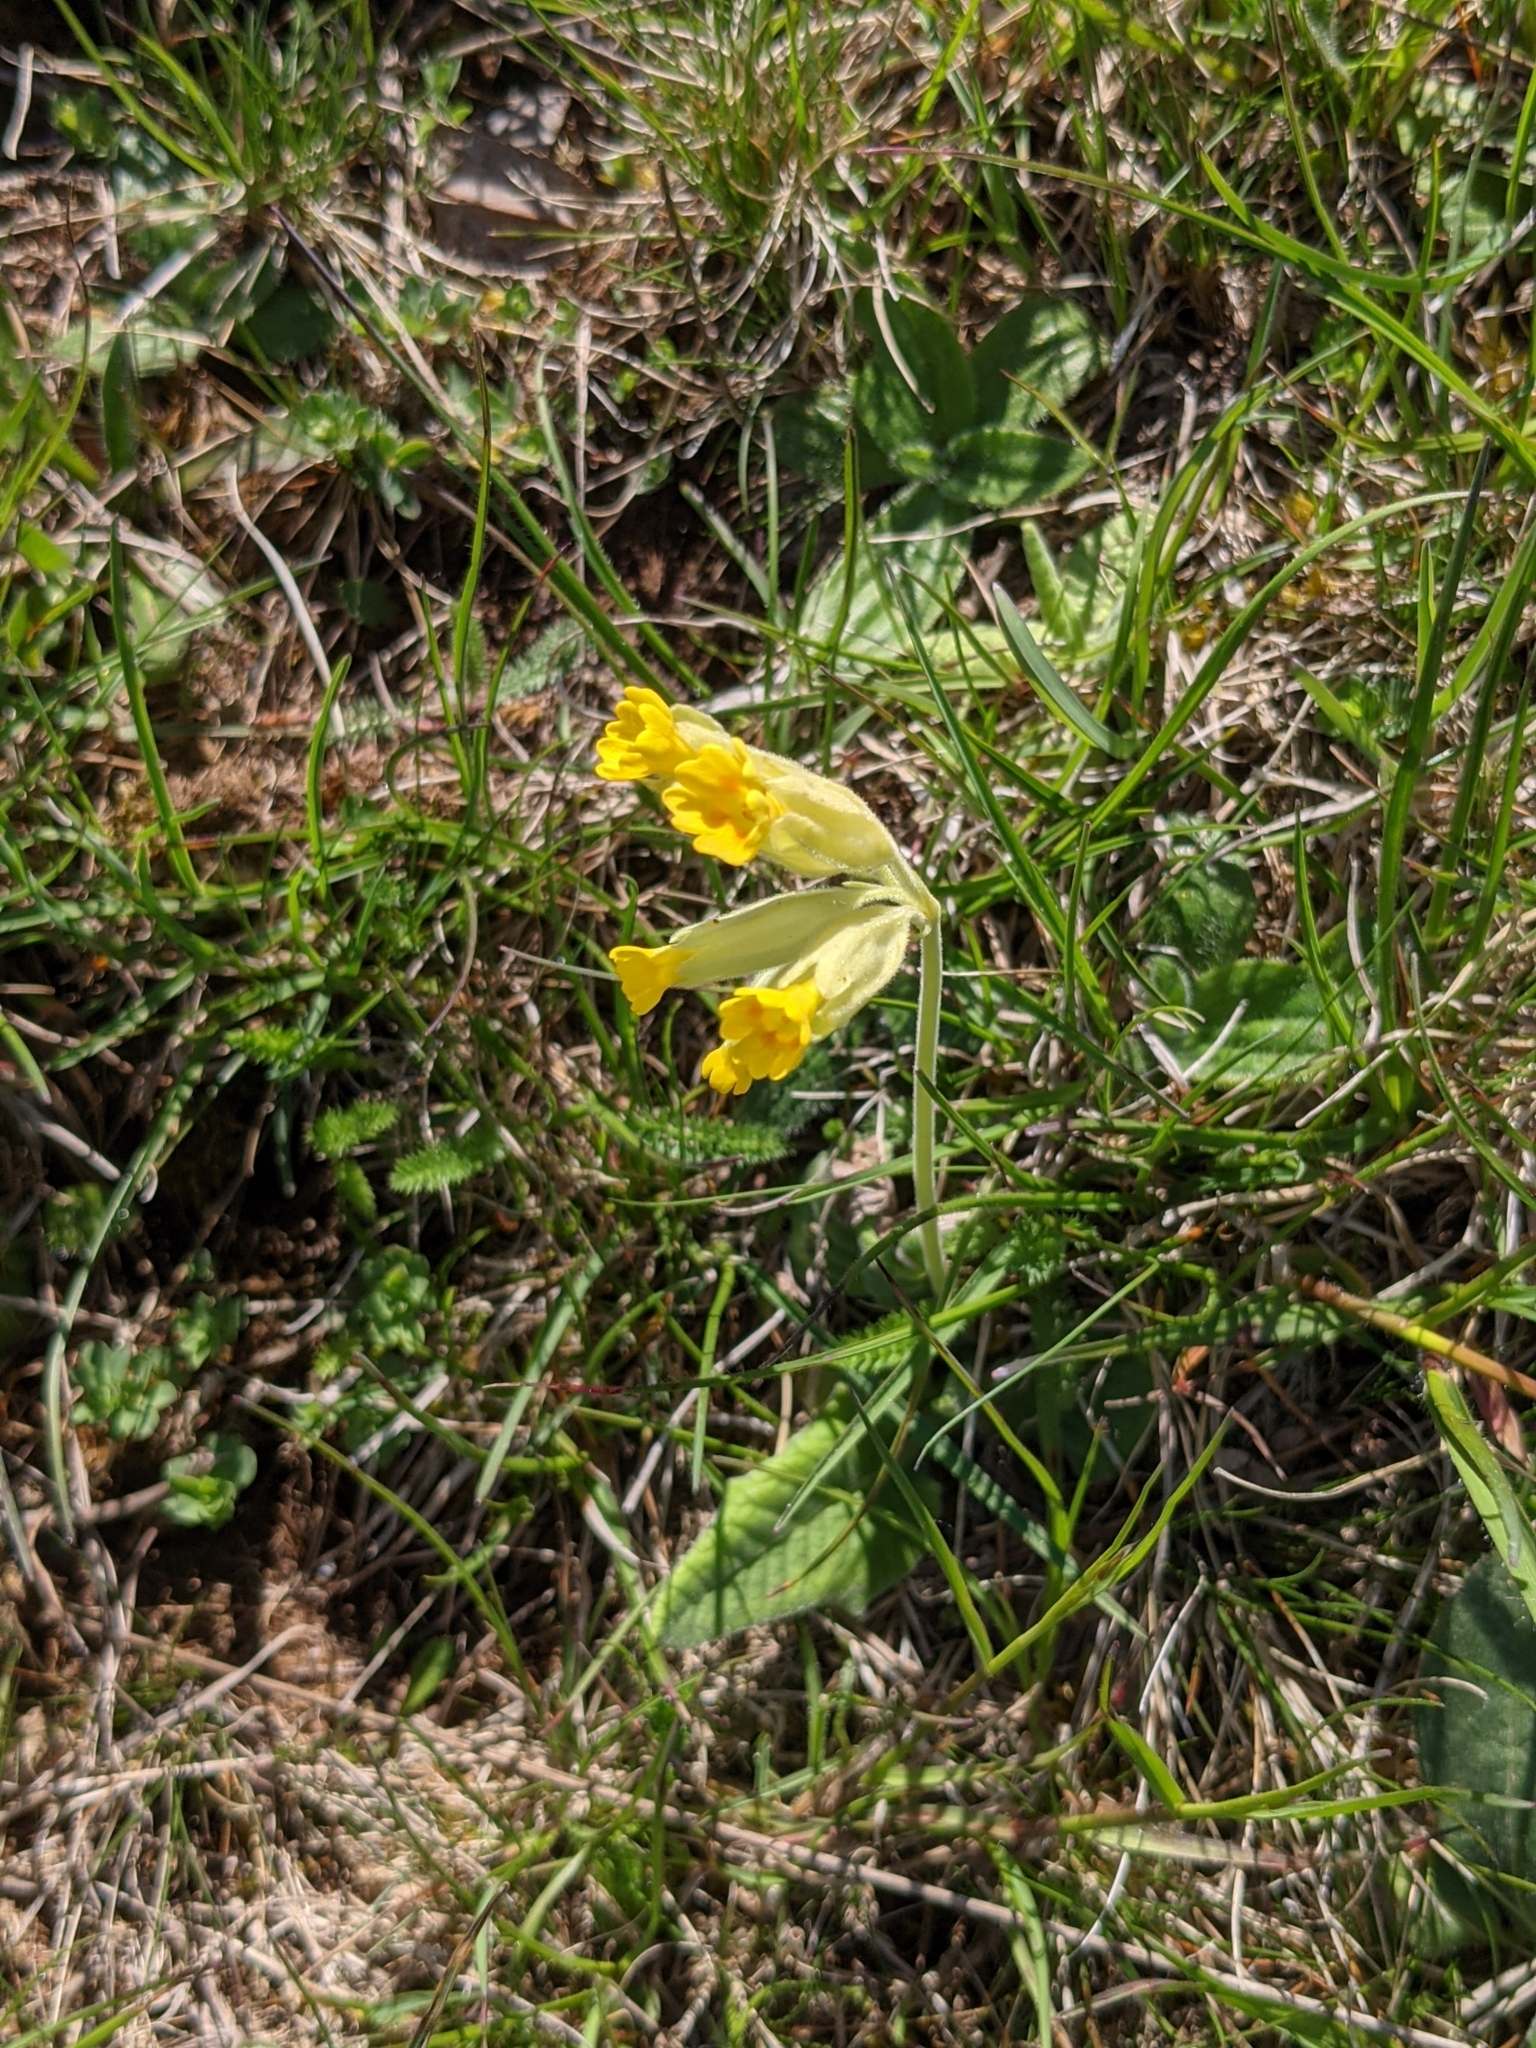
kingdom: Plantae
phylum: Tracheophyta
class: Magnoliopsida
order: Ericales
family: Primulaceae
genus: Primula
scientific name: Primula veris
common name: Cowslip
